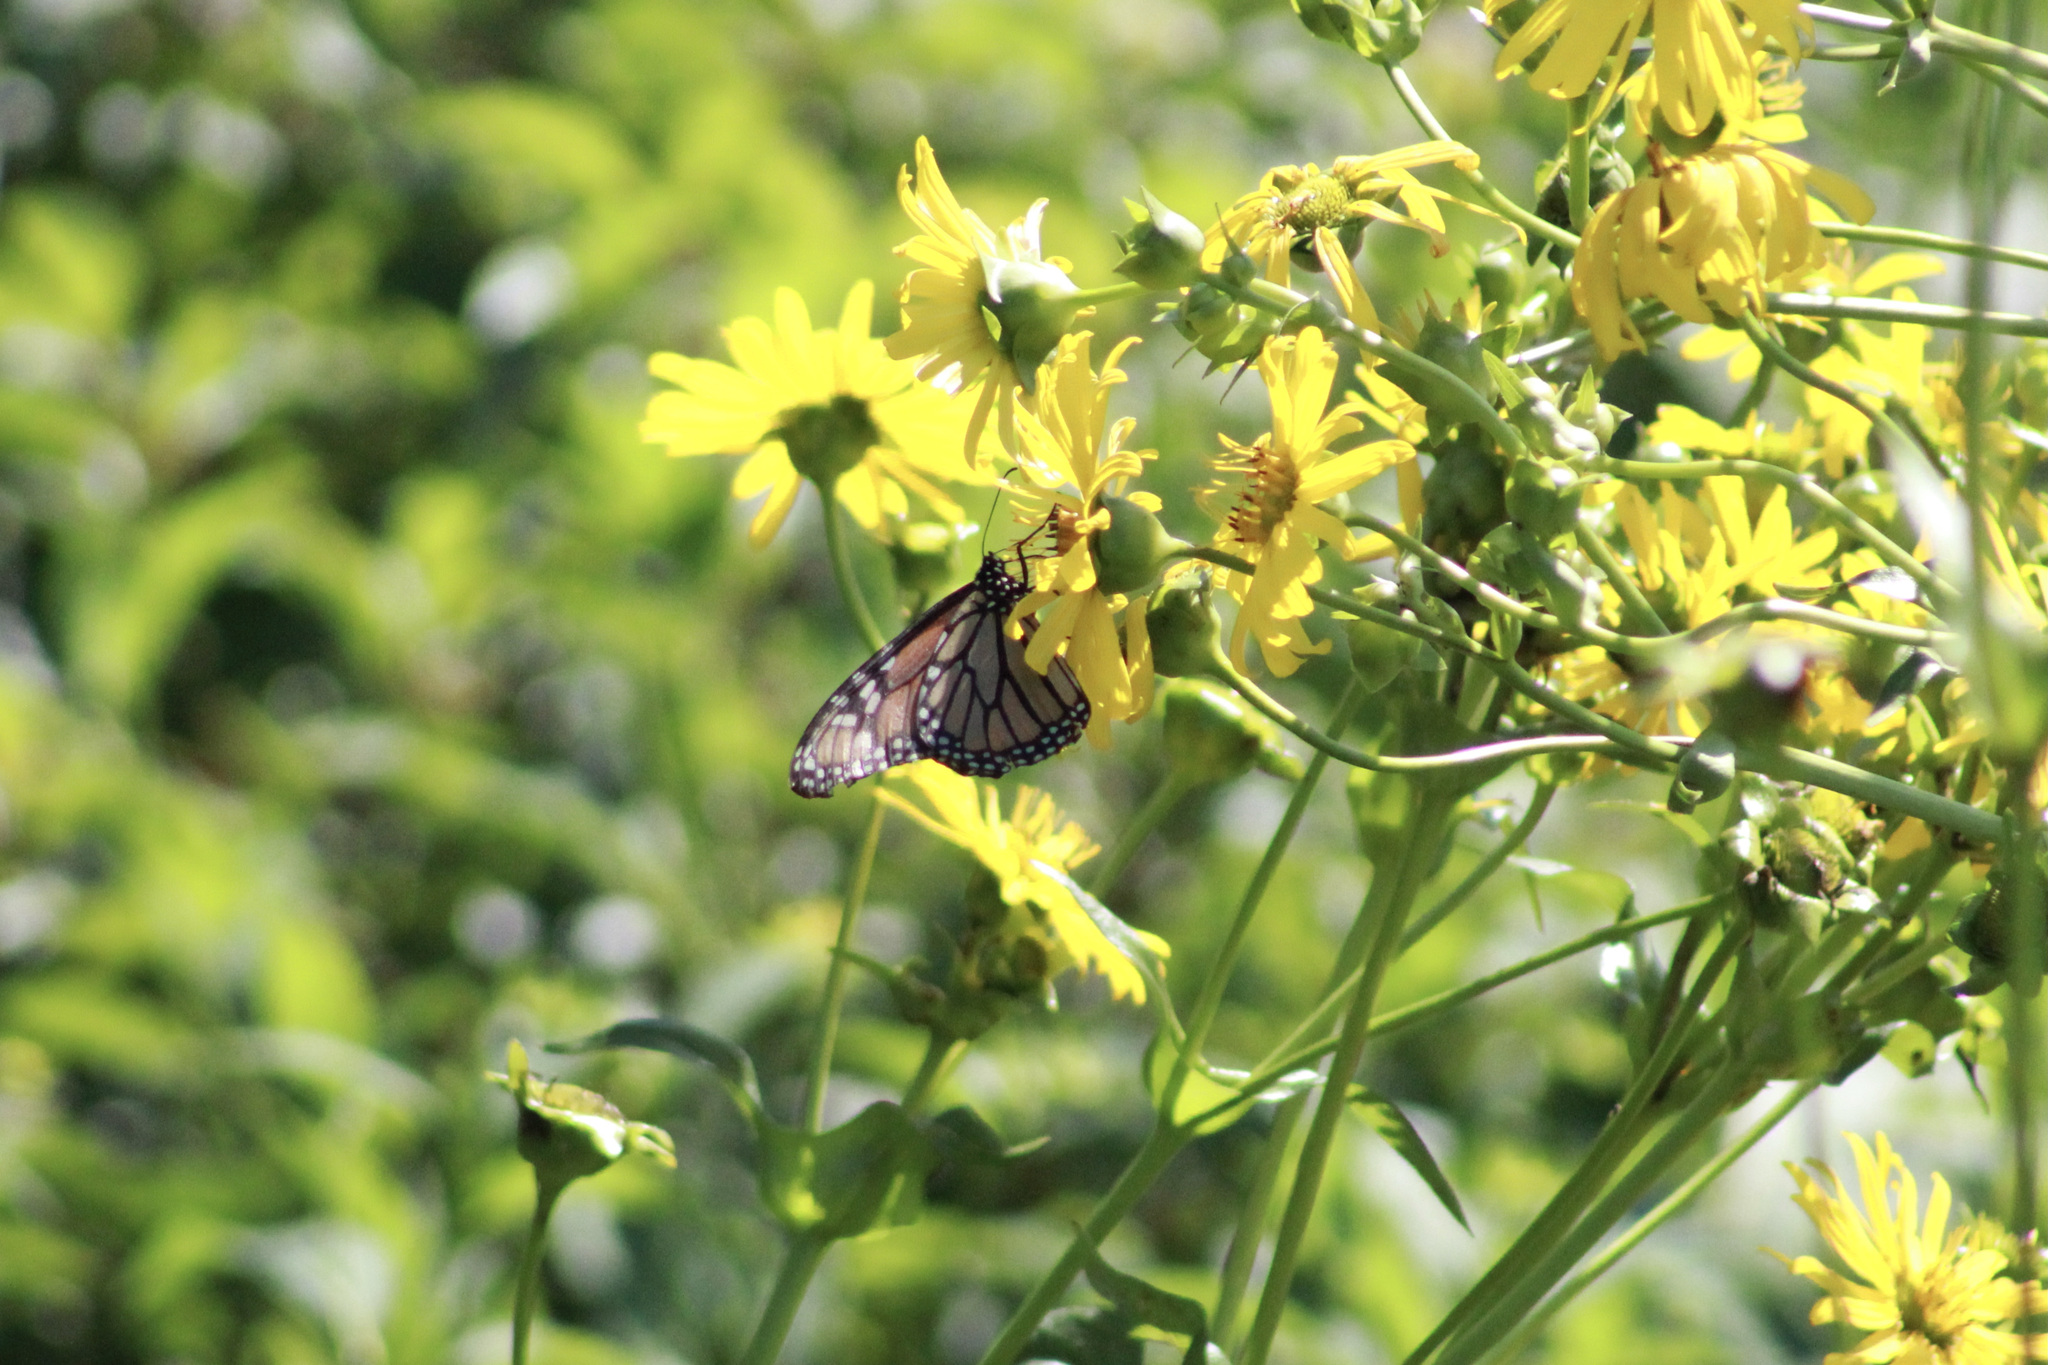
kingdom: Animalia
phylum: Arthropoda
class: Insecta
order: Lepidoptera
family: Nymphalidae
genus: Danaus
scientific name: Danaus plexippus
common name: Monarch
